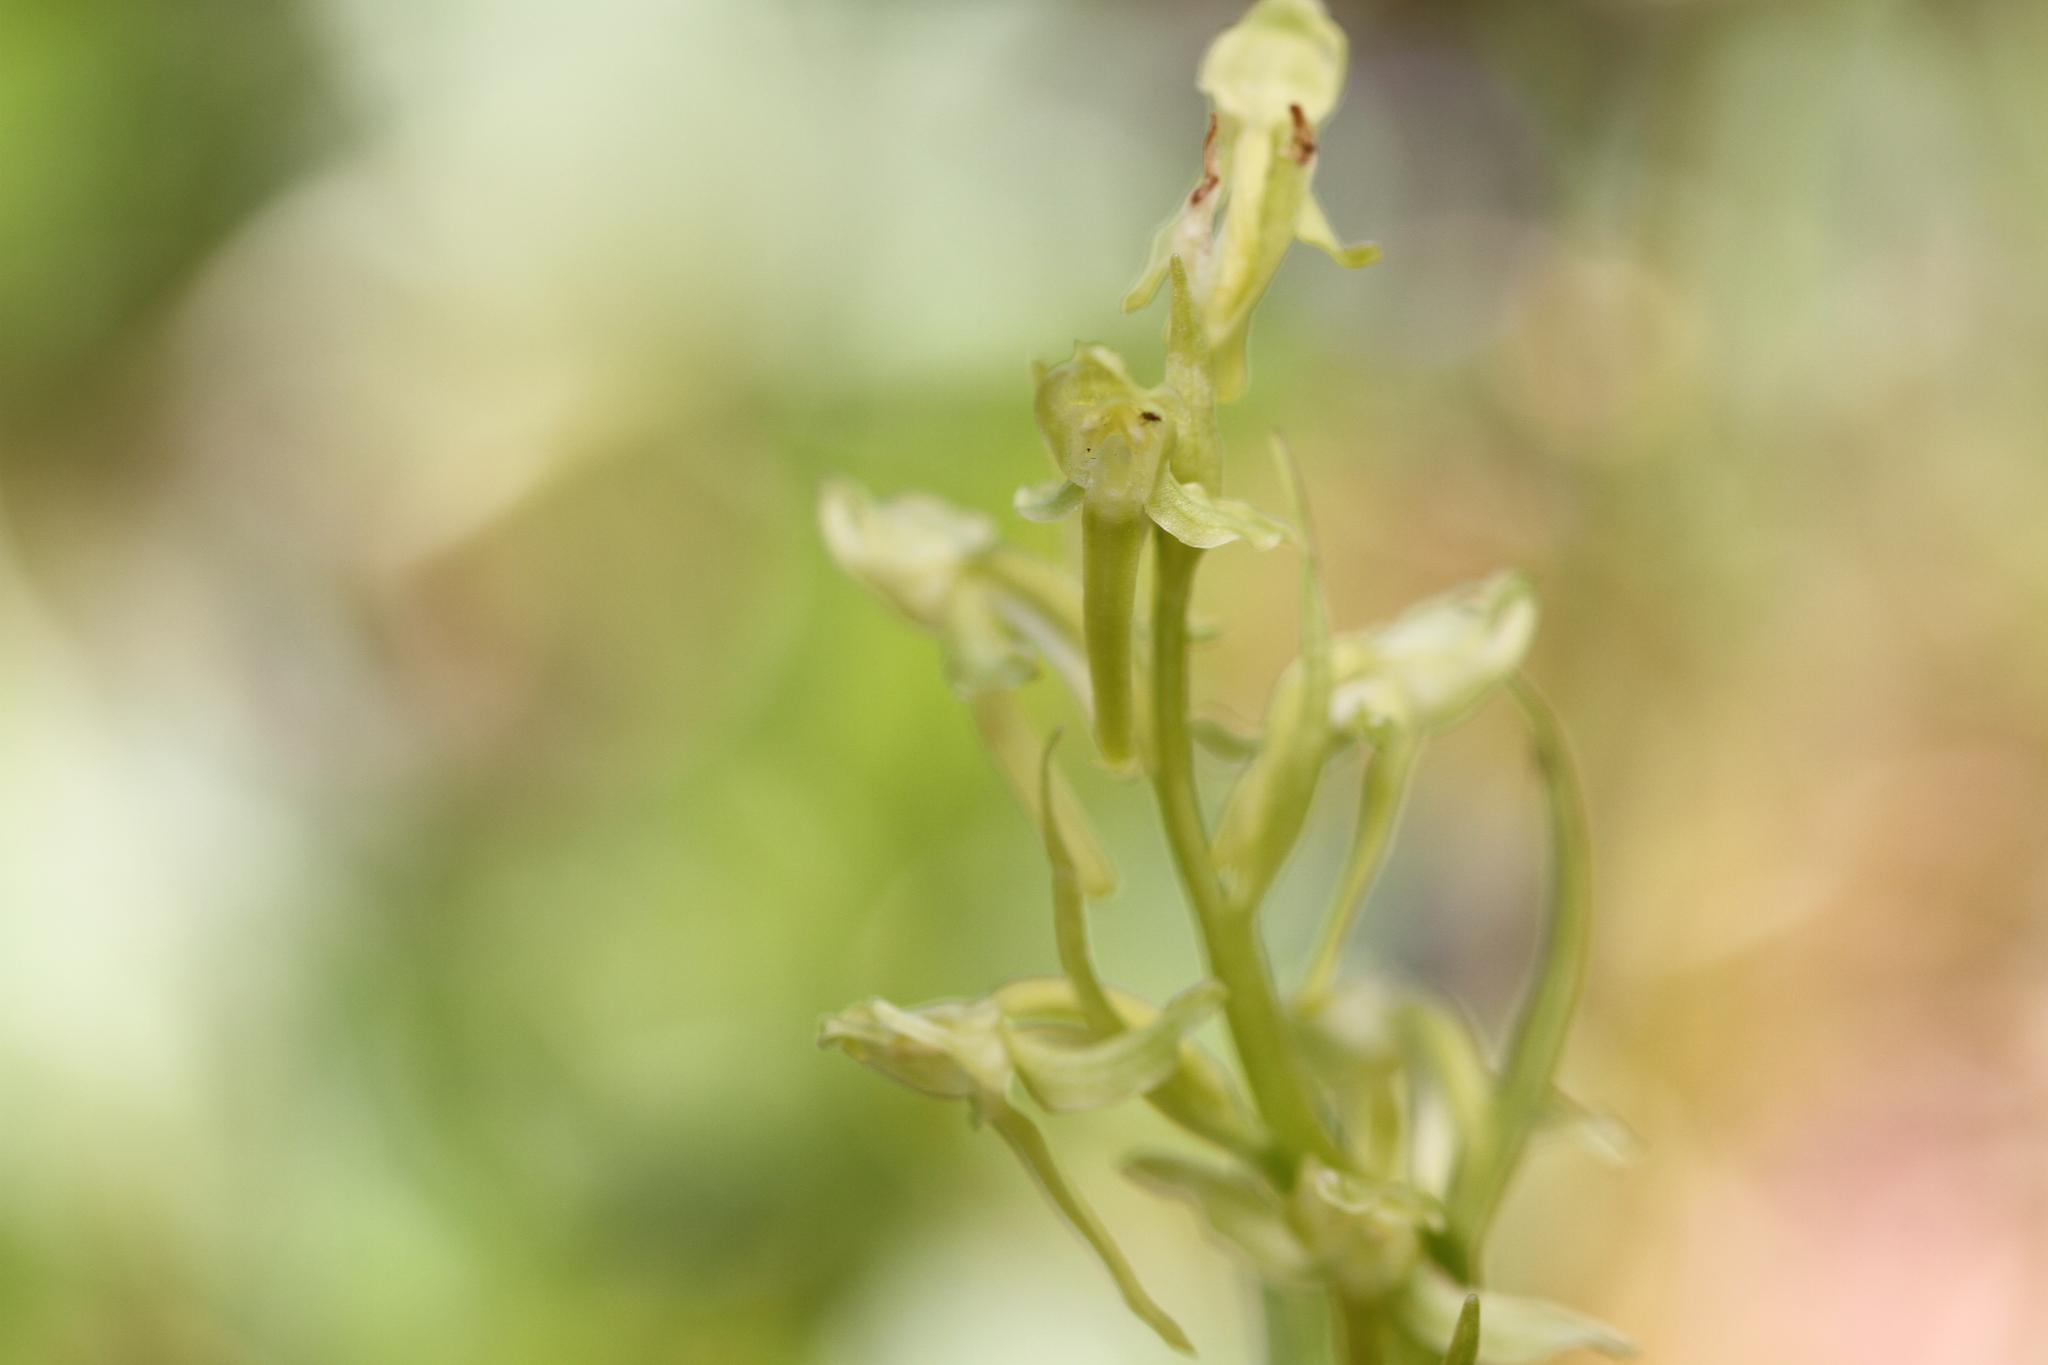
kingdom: Plantae
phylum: Tracheophyta
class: Liliopsida
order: Asparagales
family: Orchidaceae
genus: Platanthera
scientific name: Platanthera sparsiflora
